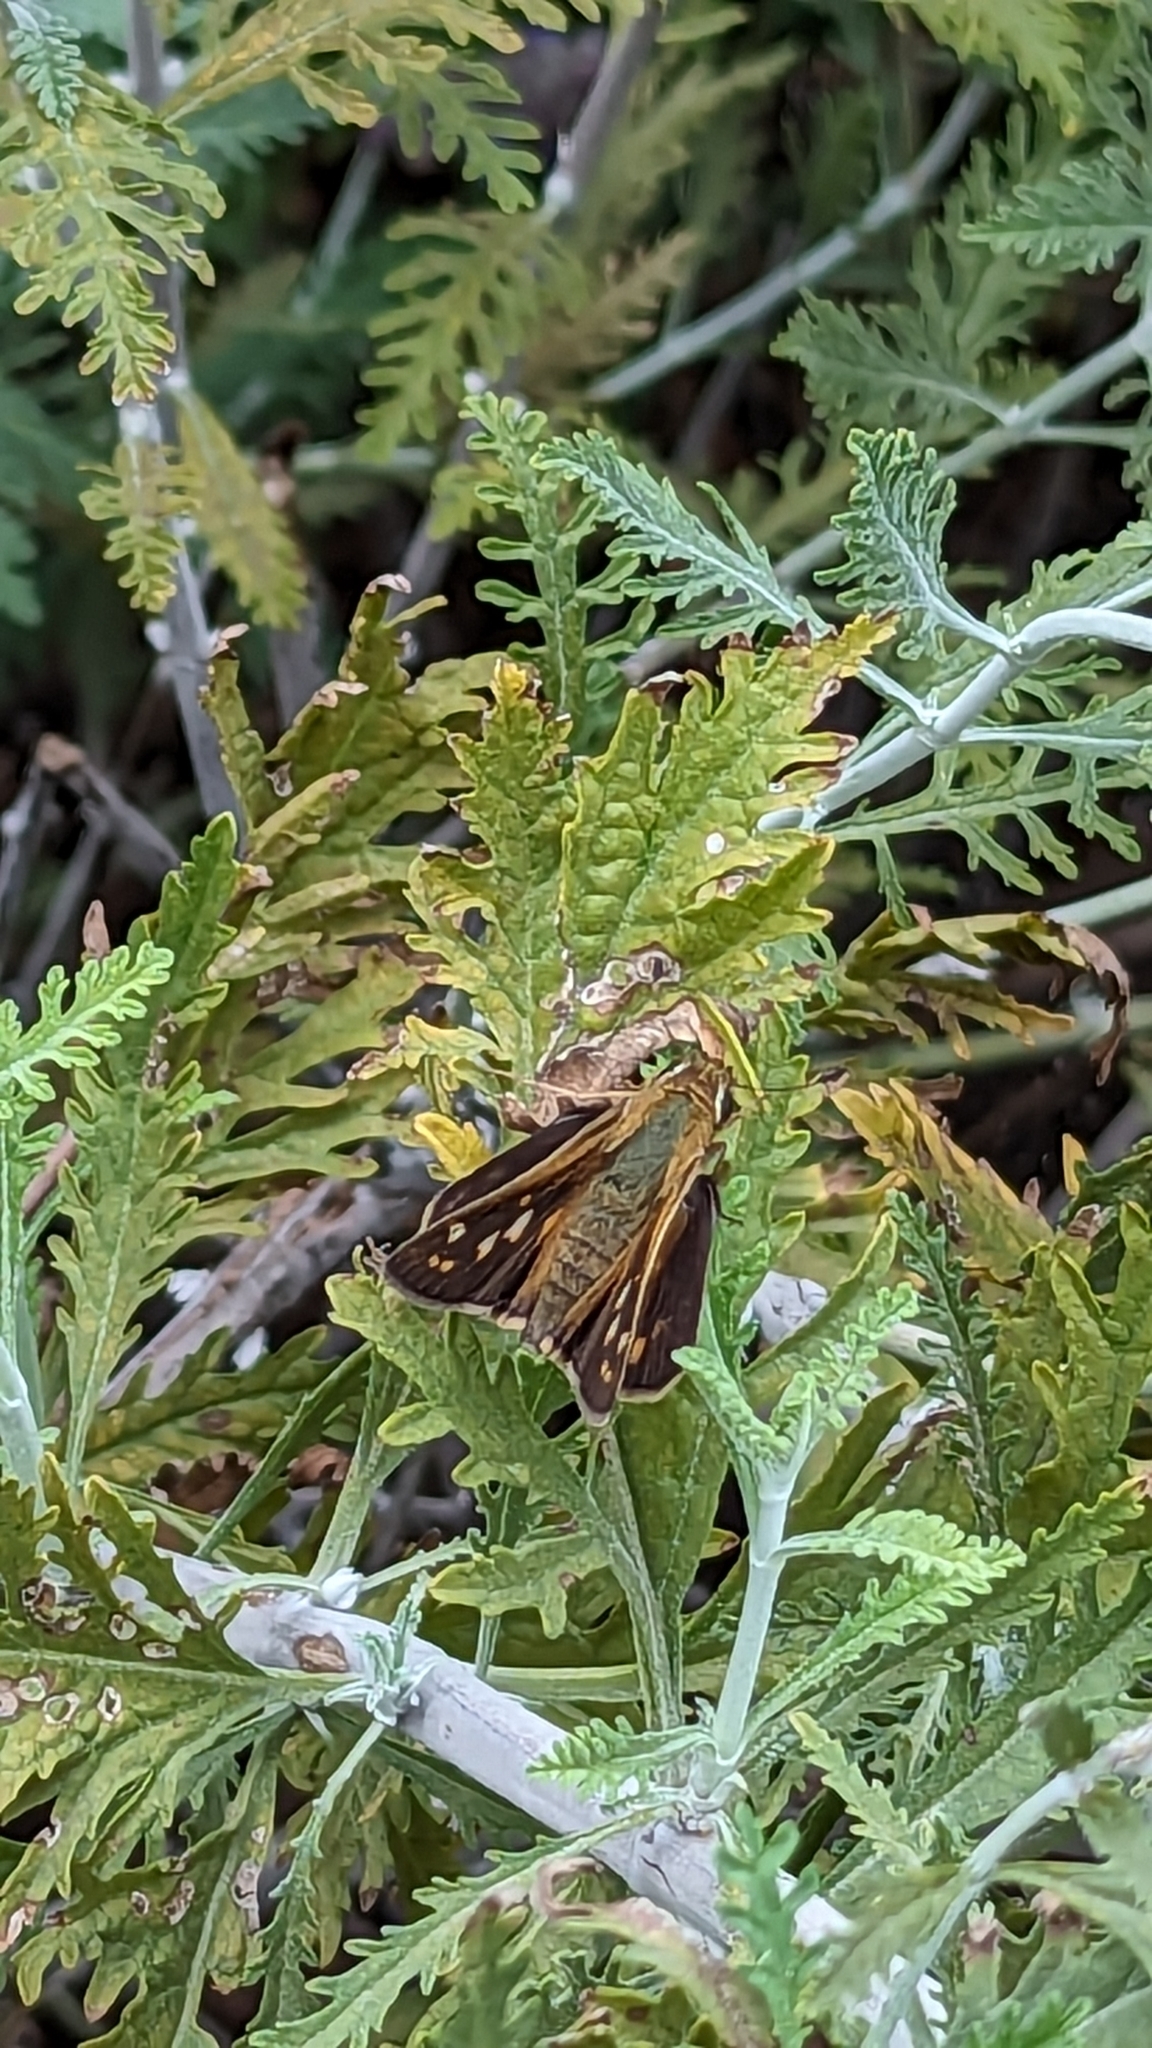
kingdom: Animalia
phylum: Arthropoda
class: Insecta
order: Lepidoptera
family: Hesperiidae
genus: Atalopedes
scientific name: Atalopedes
